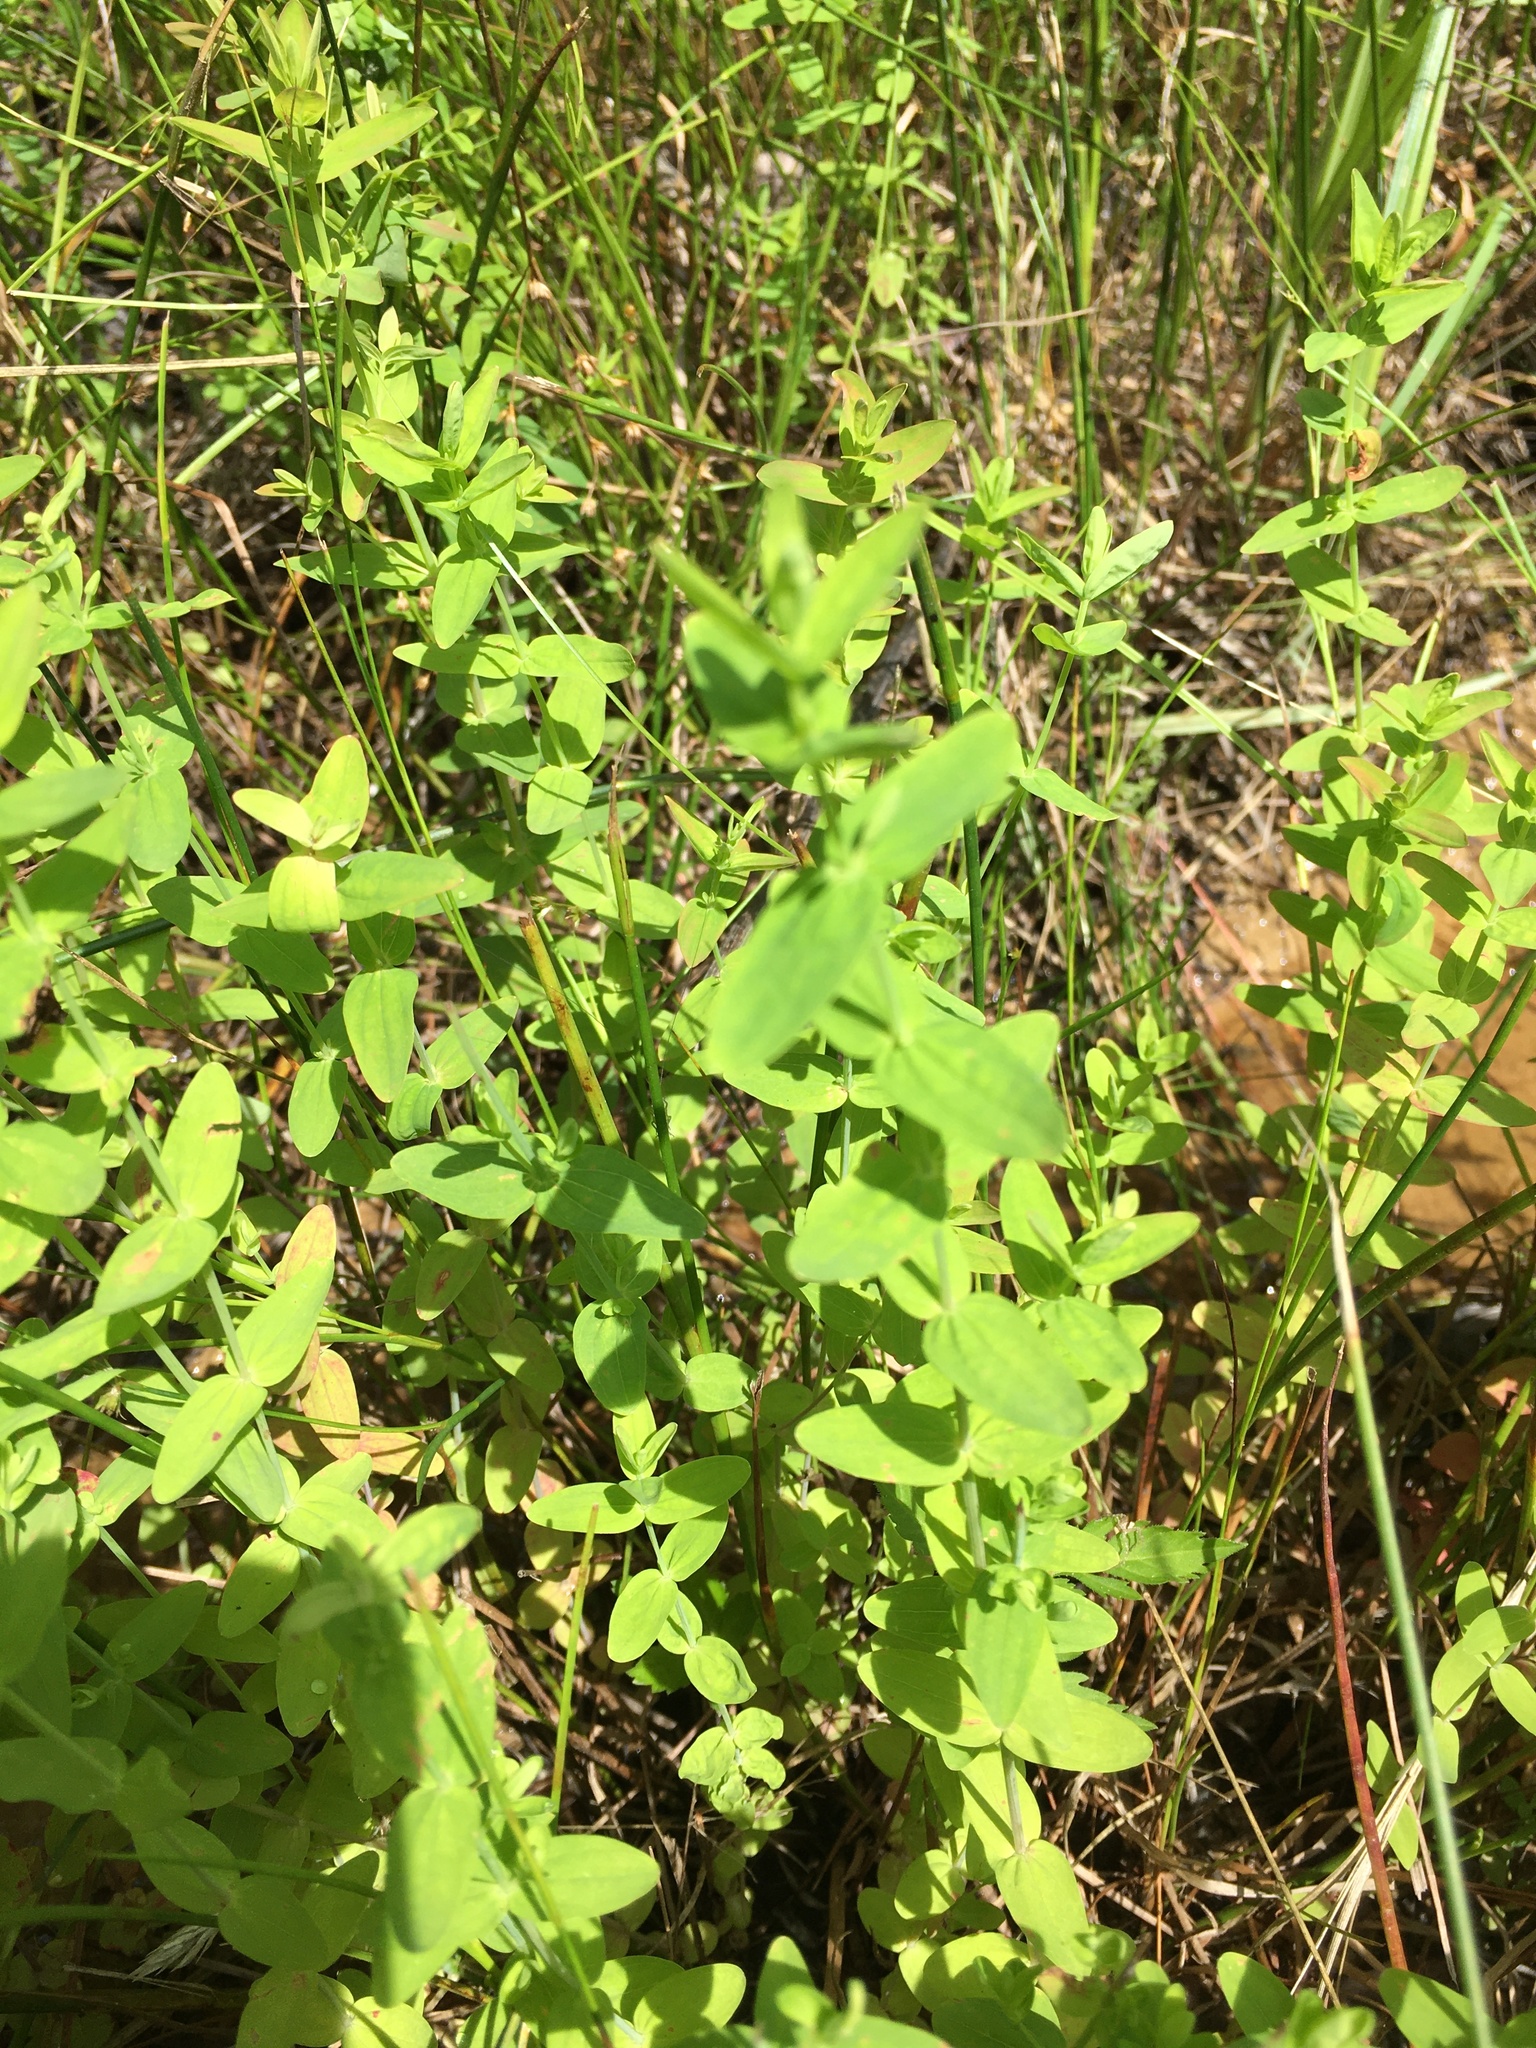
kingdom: Plantae
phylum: Tracheophyta
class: Magnoliopsida
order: Malpighiales
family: Hypericaceae
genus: Hypericum
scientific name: Hypericum mutilum
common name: Dwarf st. john's-wort
